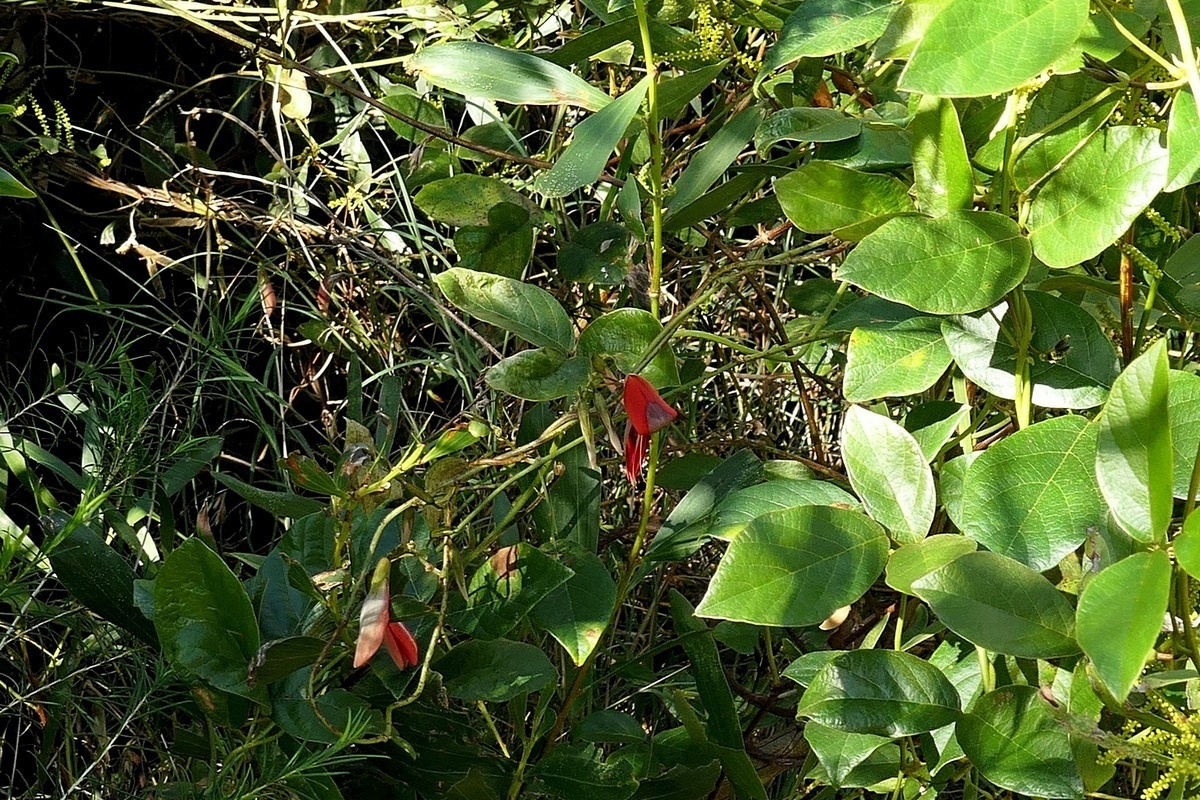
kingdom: Plantae
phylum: Tracheophyta
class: Magnoliopsida
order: Fabales
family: Fabaceae
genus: Kennedia
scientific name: Kennedia rubicunda
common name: Red kennedy-pea
